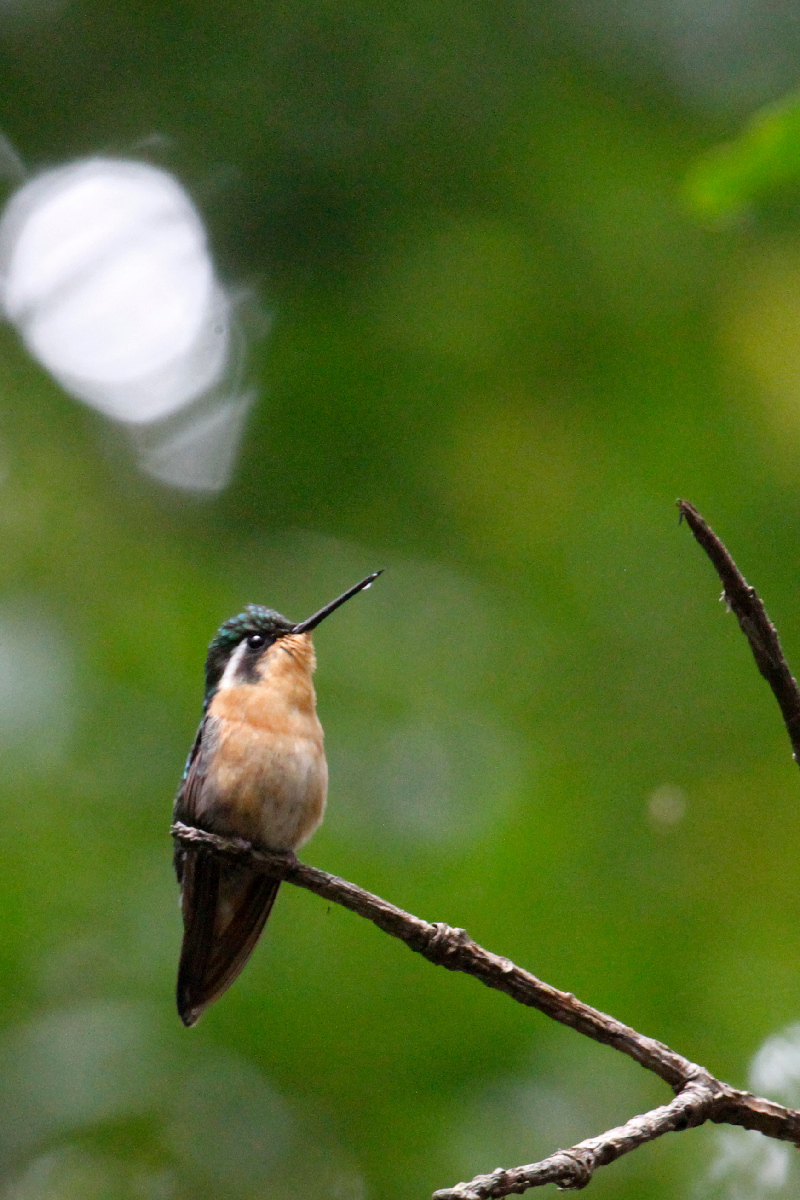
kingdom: Animalia
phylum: Chordata
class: Aves
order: Apodiformes
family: Trochilidae
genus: Lampornis
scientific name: Lampornis calolaemus
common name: Purple-throated mountain-gem
